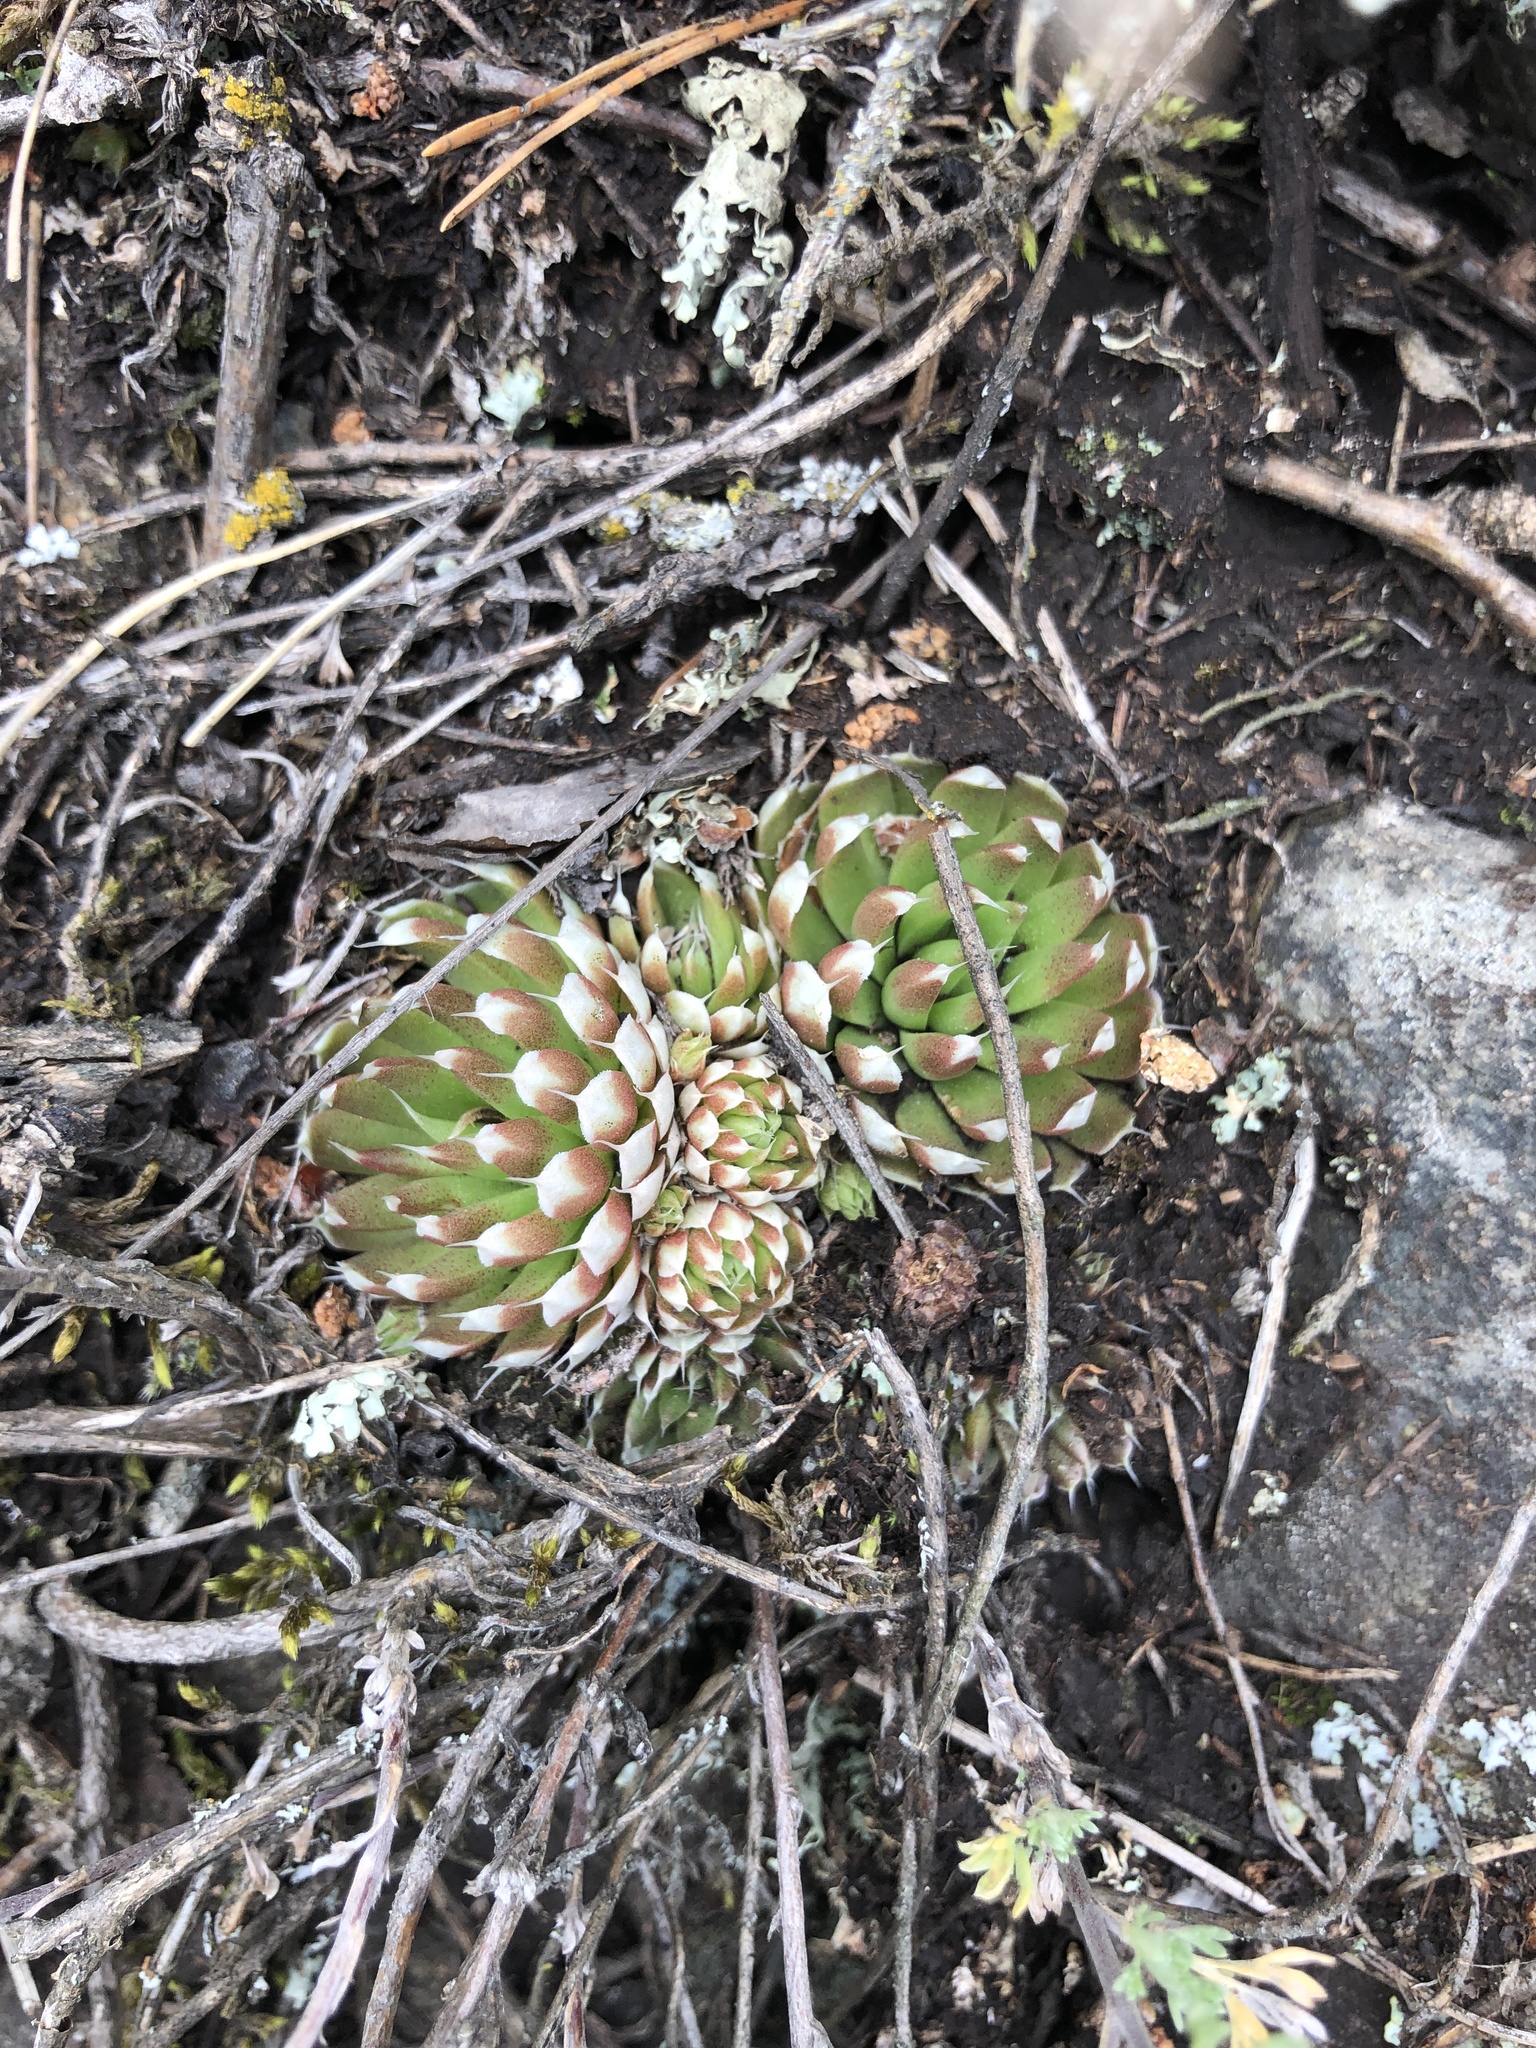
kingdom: Plantae
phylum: Tracheophyta
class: Magnoliopsida
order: Saxifragales
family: Crassulaceae
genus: Orostachys
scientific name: Orostachys spinosa
